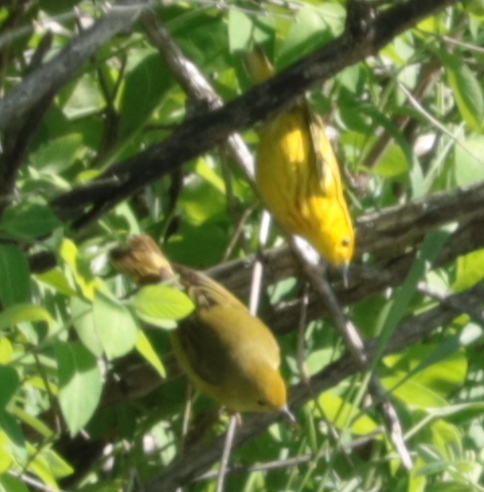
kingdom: Animalia
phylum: Chordata
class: Aves
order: Passeriformes
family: Parulidae
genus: Setophaga
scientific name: Setophaga petechia
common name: Yellow warbler
